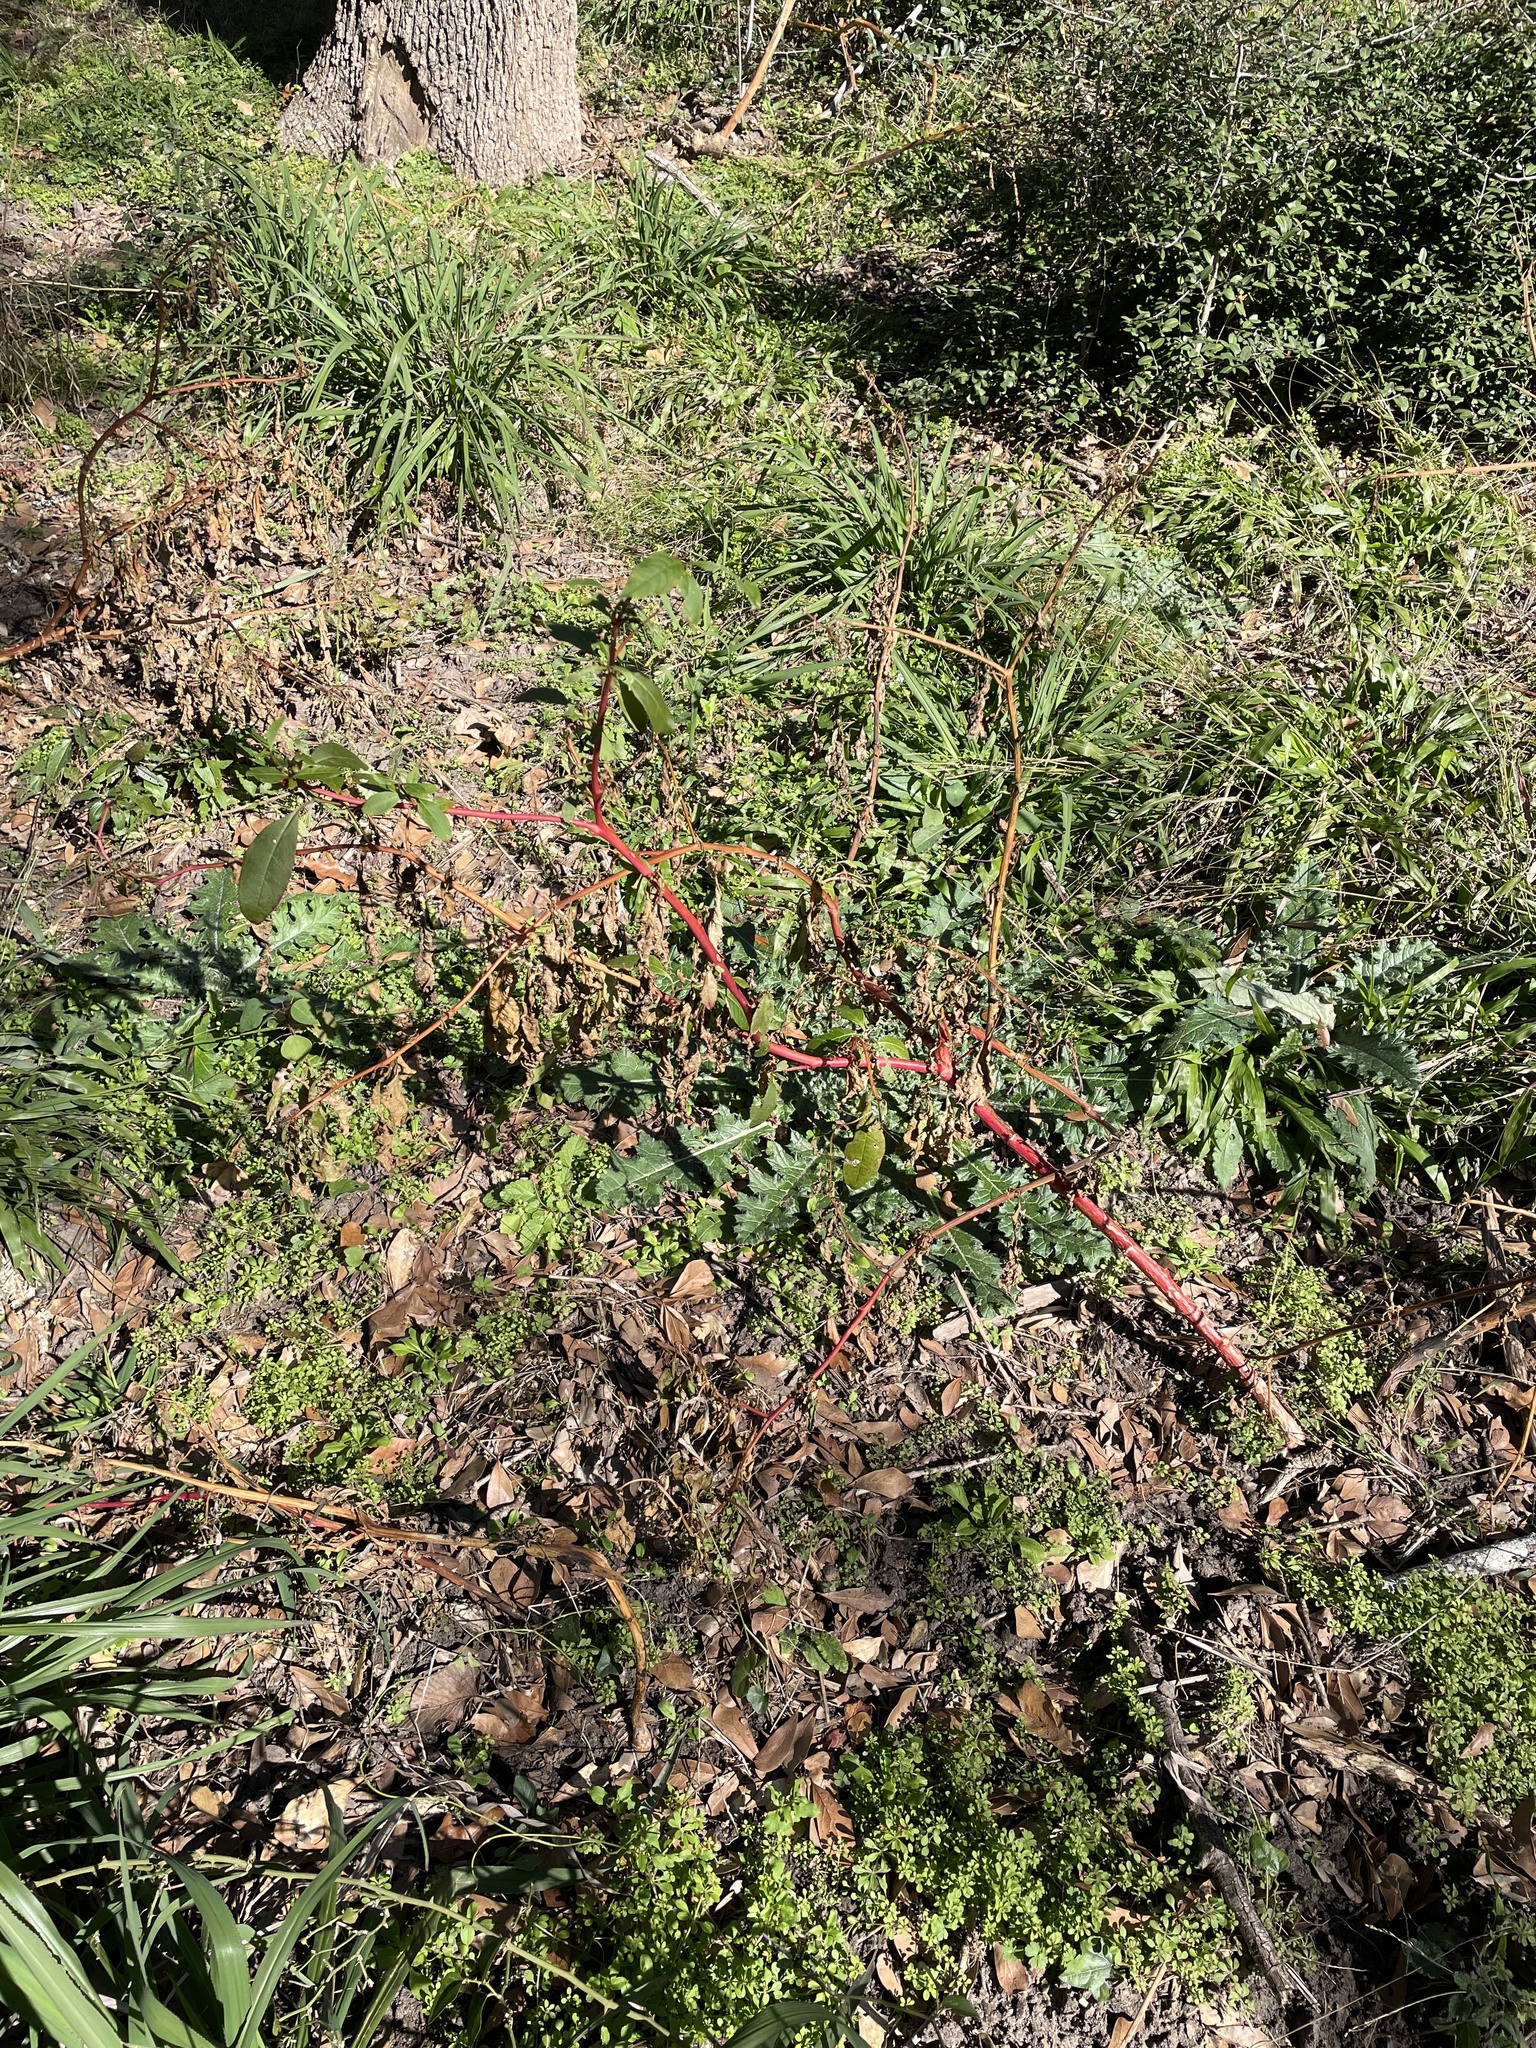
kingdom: Plantae
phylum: Tracheophyta
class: Magnoliopsida
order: Caryophyllales
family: Phytolaccaceae
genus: Phytolacca
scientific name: Phytolacca americana
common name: American pokeweed
